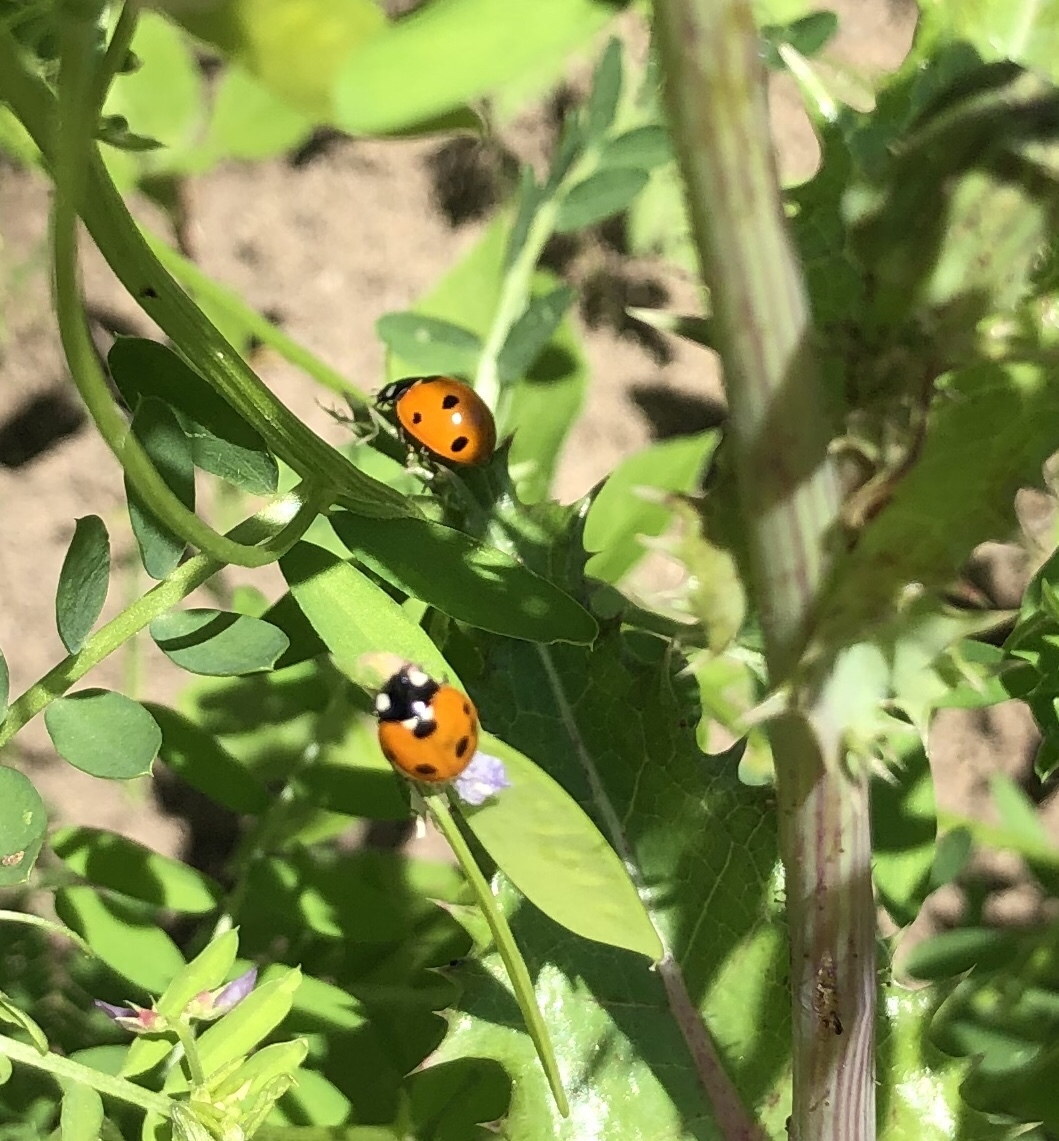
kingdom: Animalia
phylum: Arthropoda
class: Insecta
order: Coleoptera
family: Coccinellidae
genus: Coccinella
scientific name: Coccinella septempunctata
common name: Sevenspotted lady beetle
